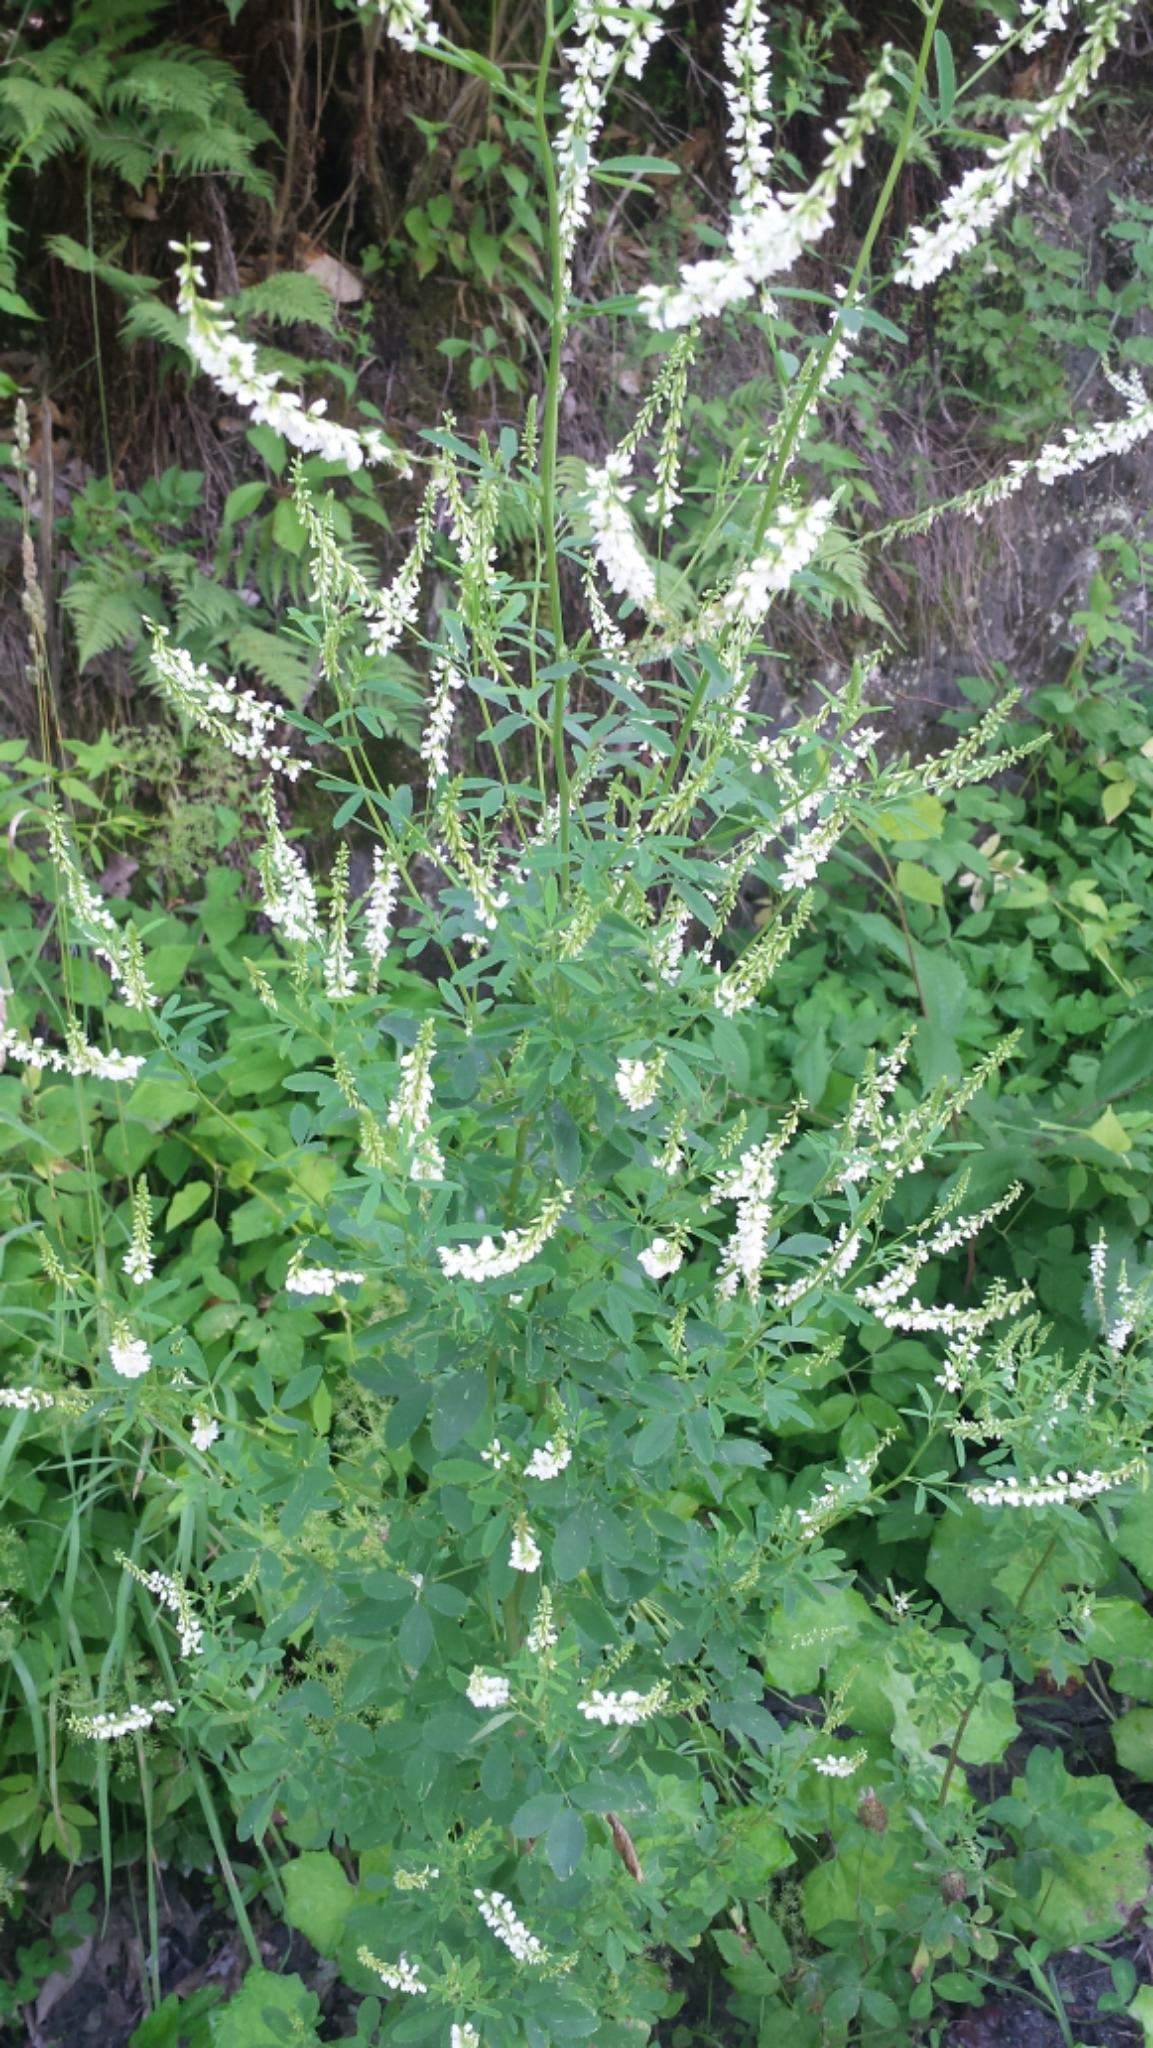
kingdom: Plantae
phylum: Tracheophyta
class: Magnoliopsida
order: Fabales
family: Fabaceae
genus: Melilotus
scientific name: Melilotus albus
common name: White melilot
